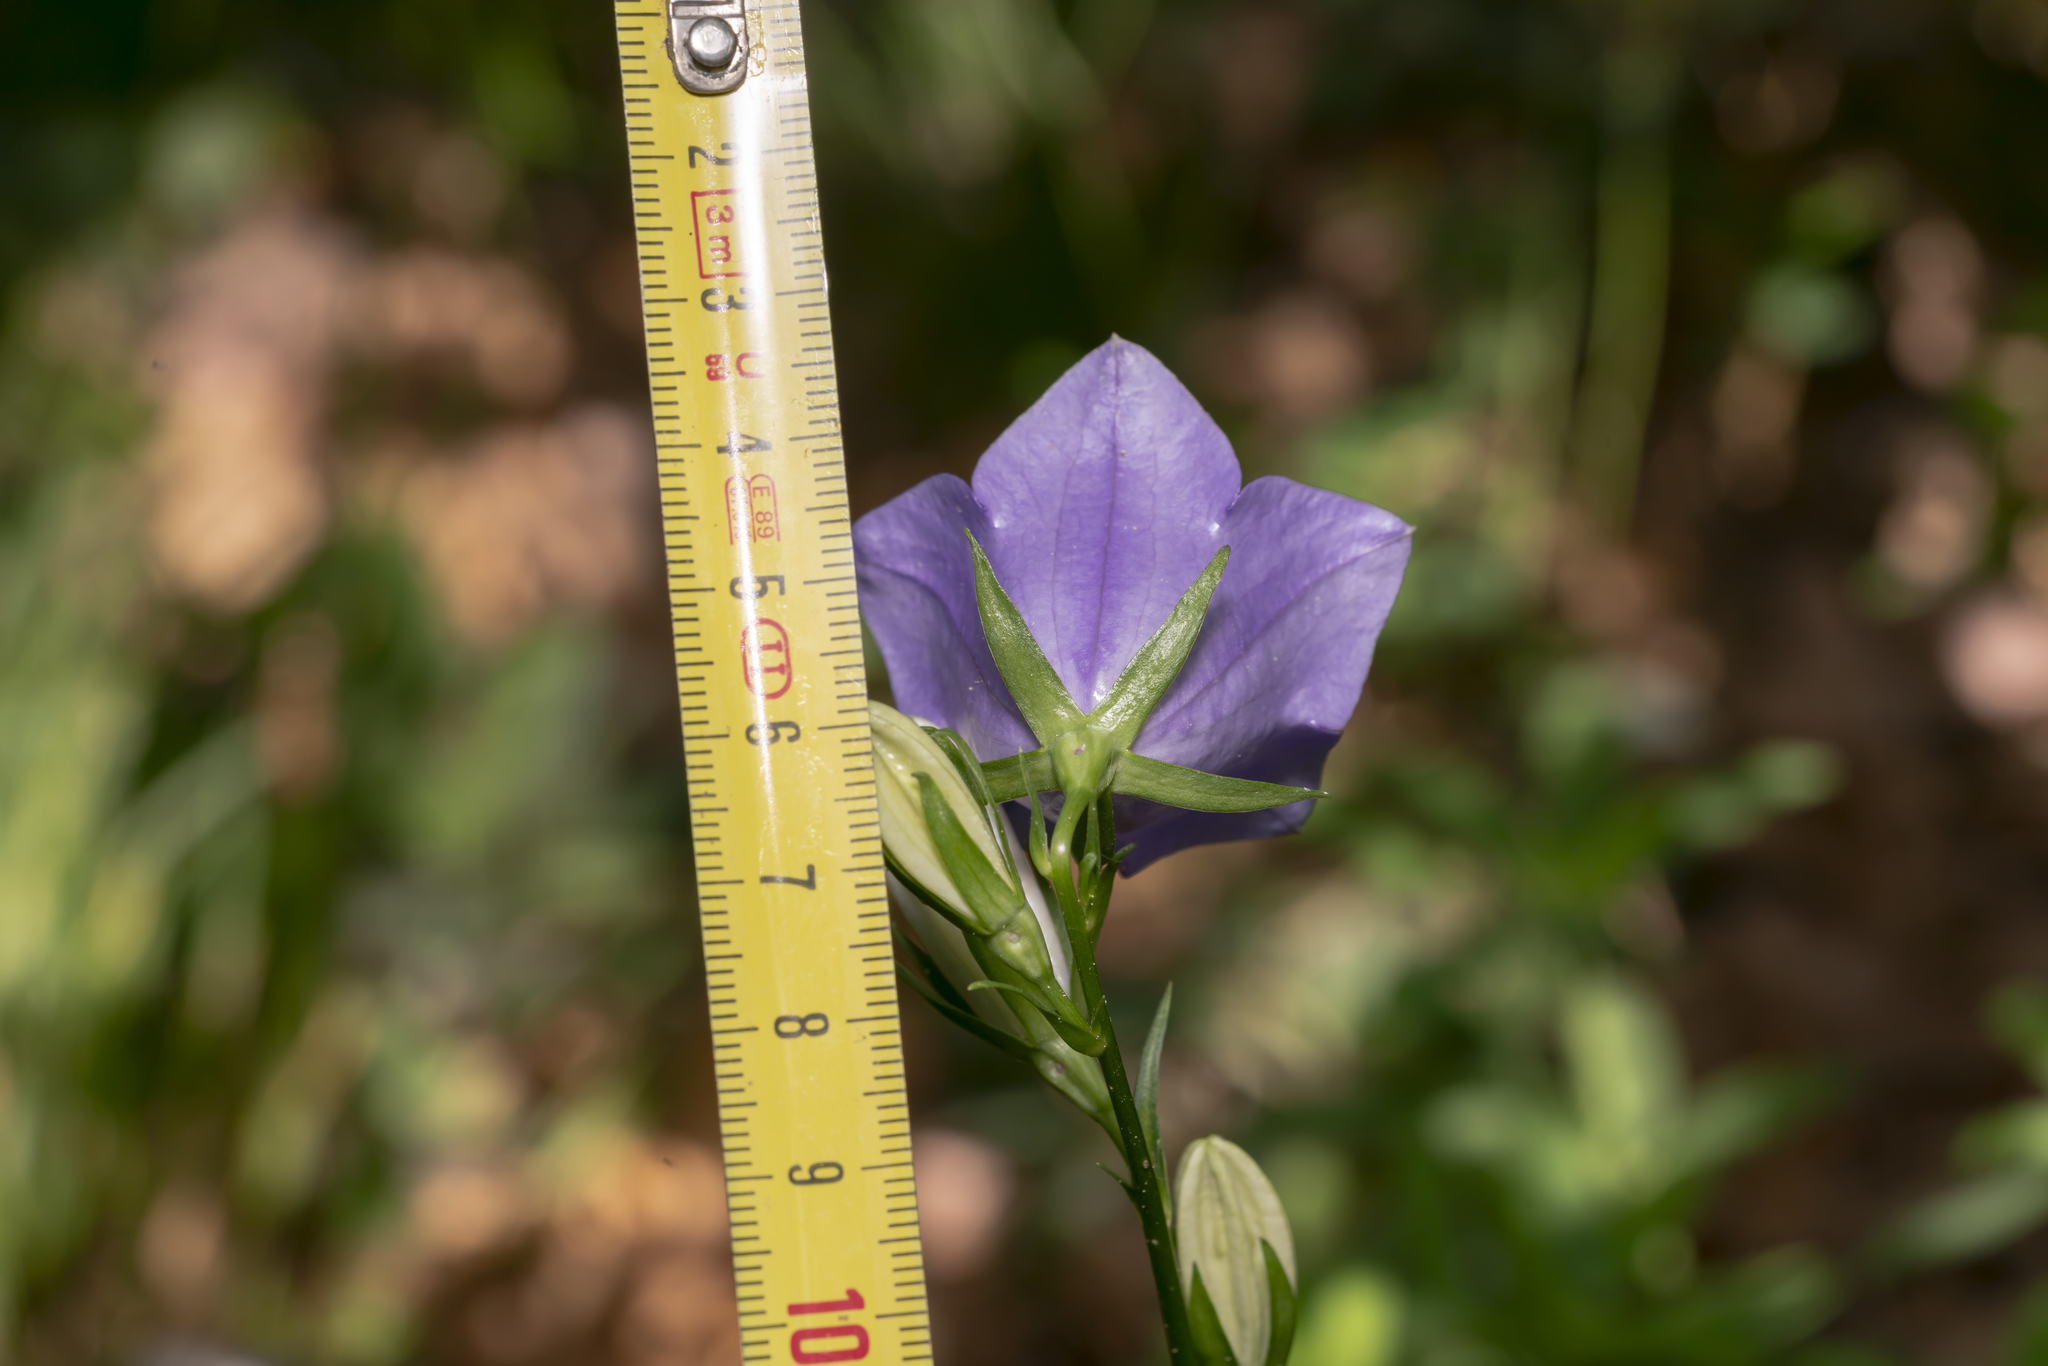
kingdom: Plantae
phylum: Tracheophyta
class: Magnoliopsida
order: Asterales
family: Campanulaceae
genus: Campanula
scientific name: Campanula persicifolia
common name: Peach-leaved bellflower
